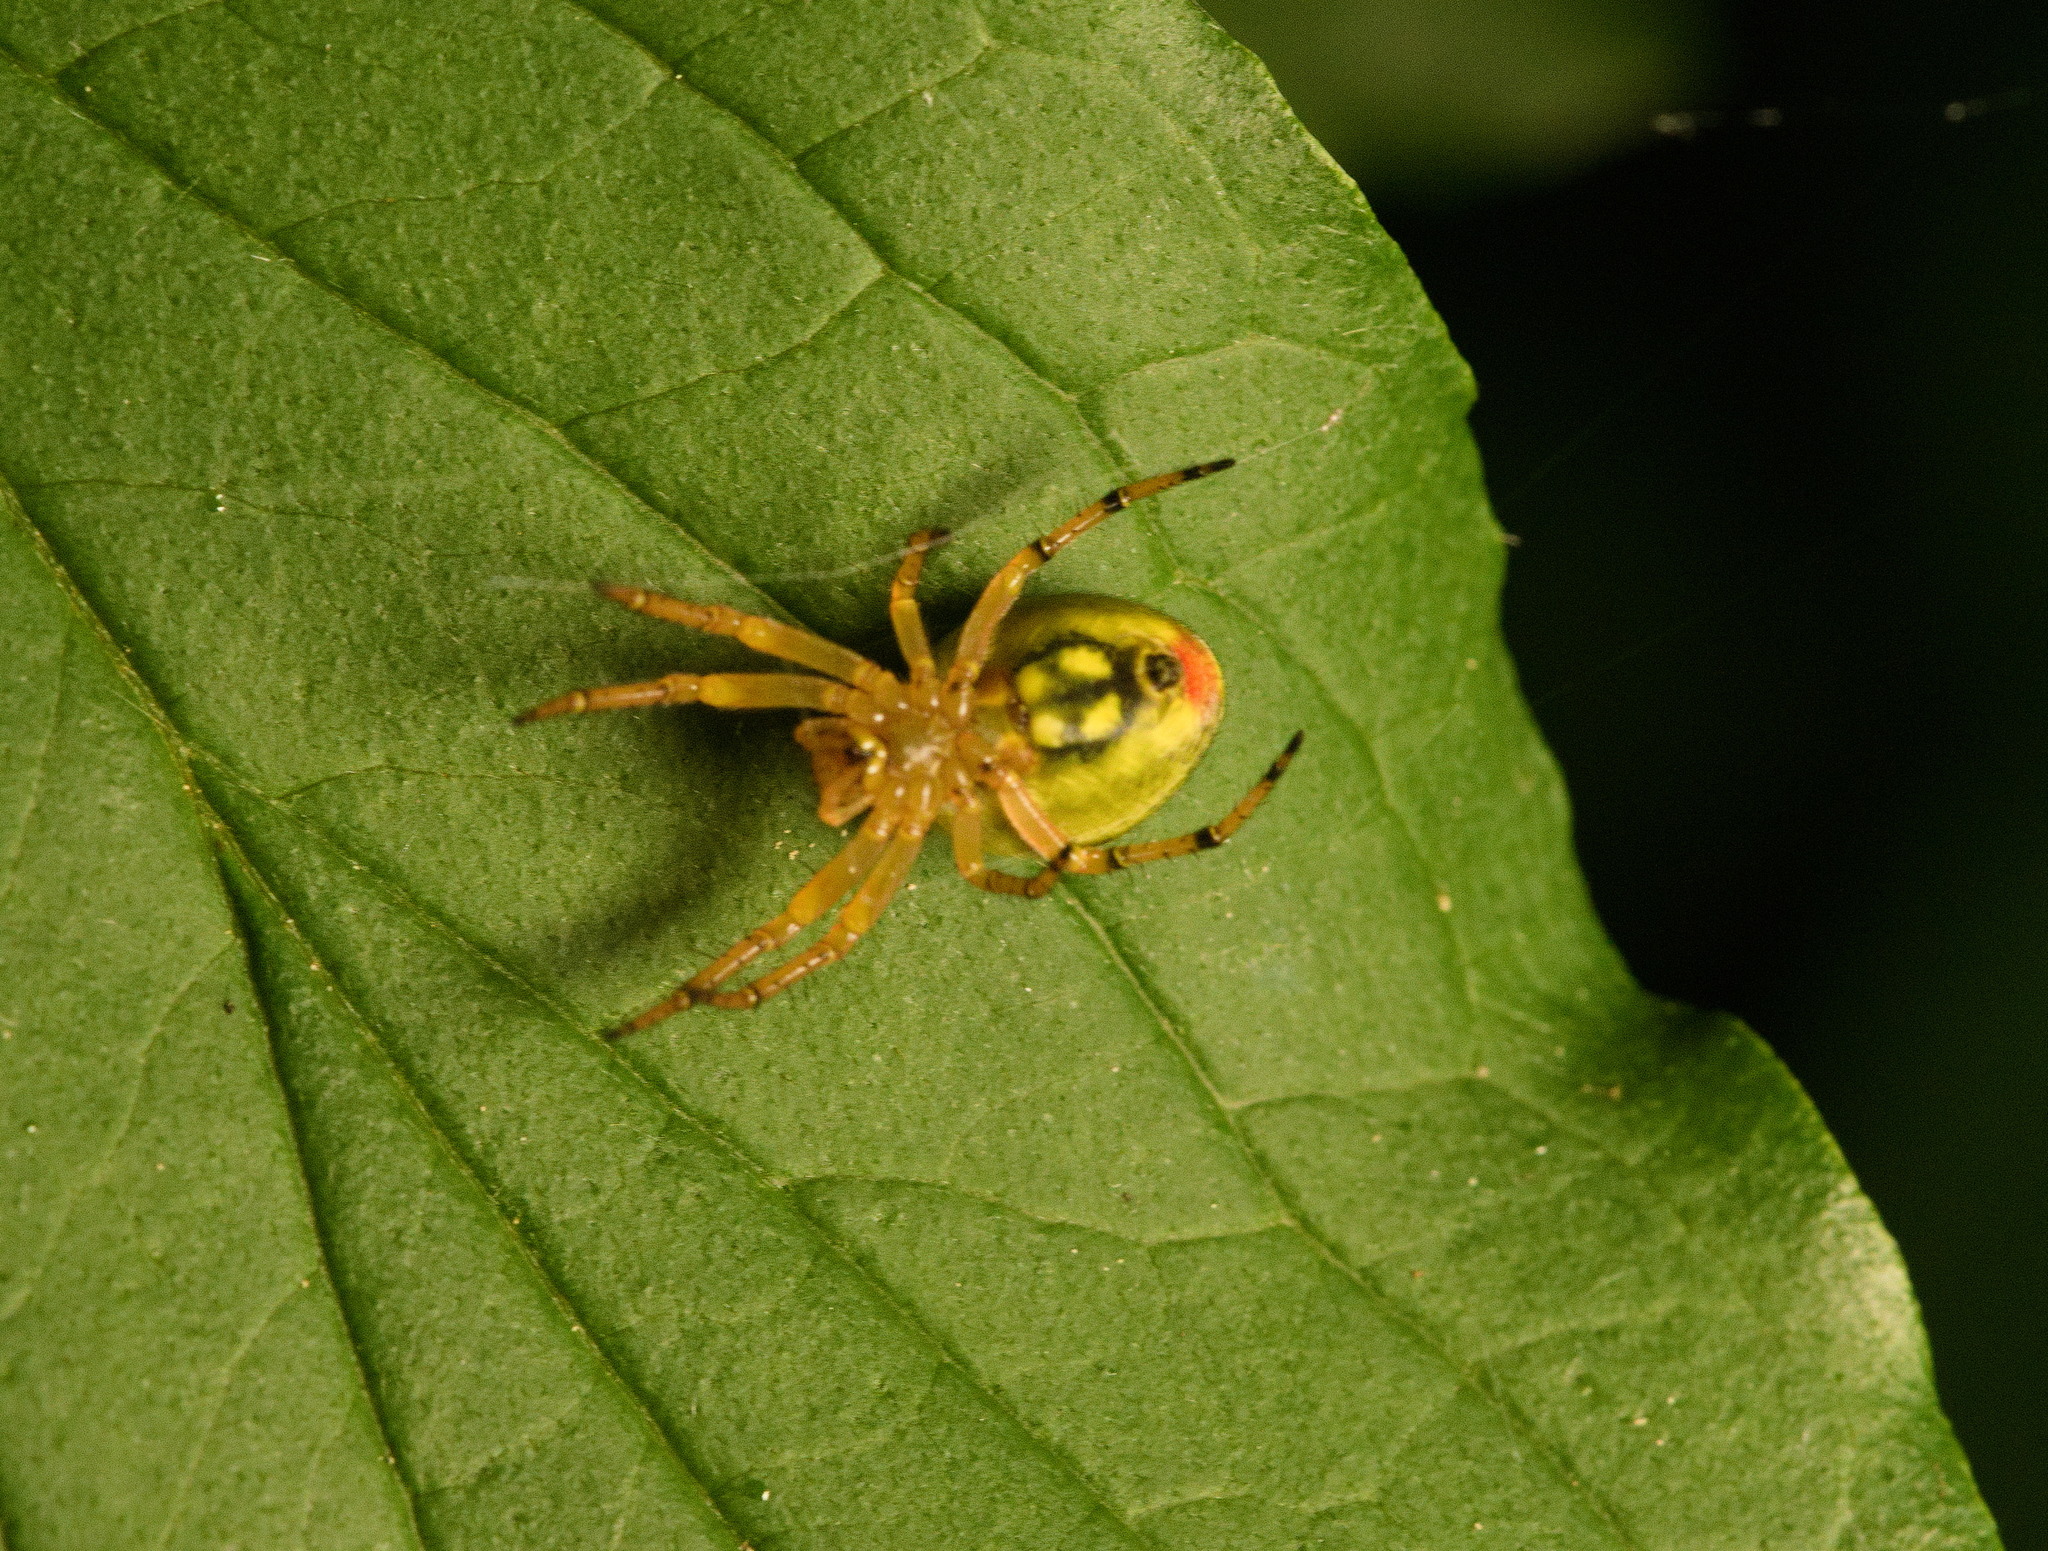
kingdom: Animalia
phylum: Arthropoda
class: Arachnida
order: Araneae
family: Araneidae
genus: Araniella
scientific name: Araniella alpica
